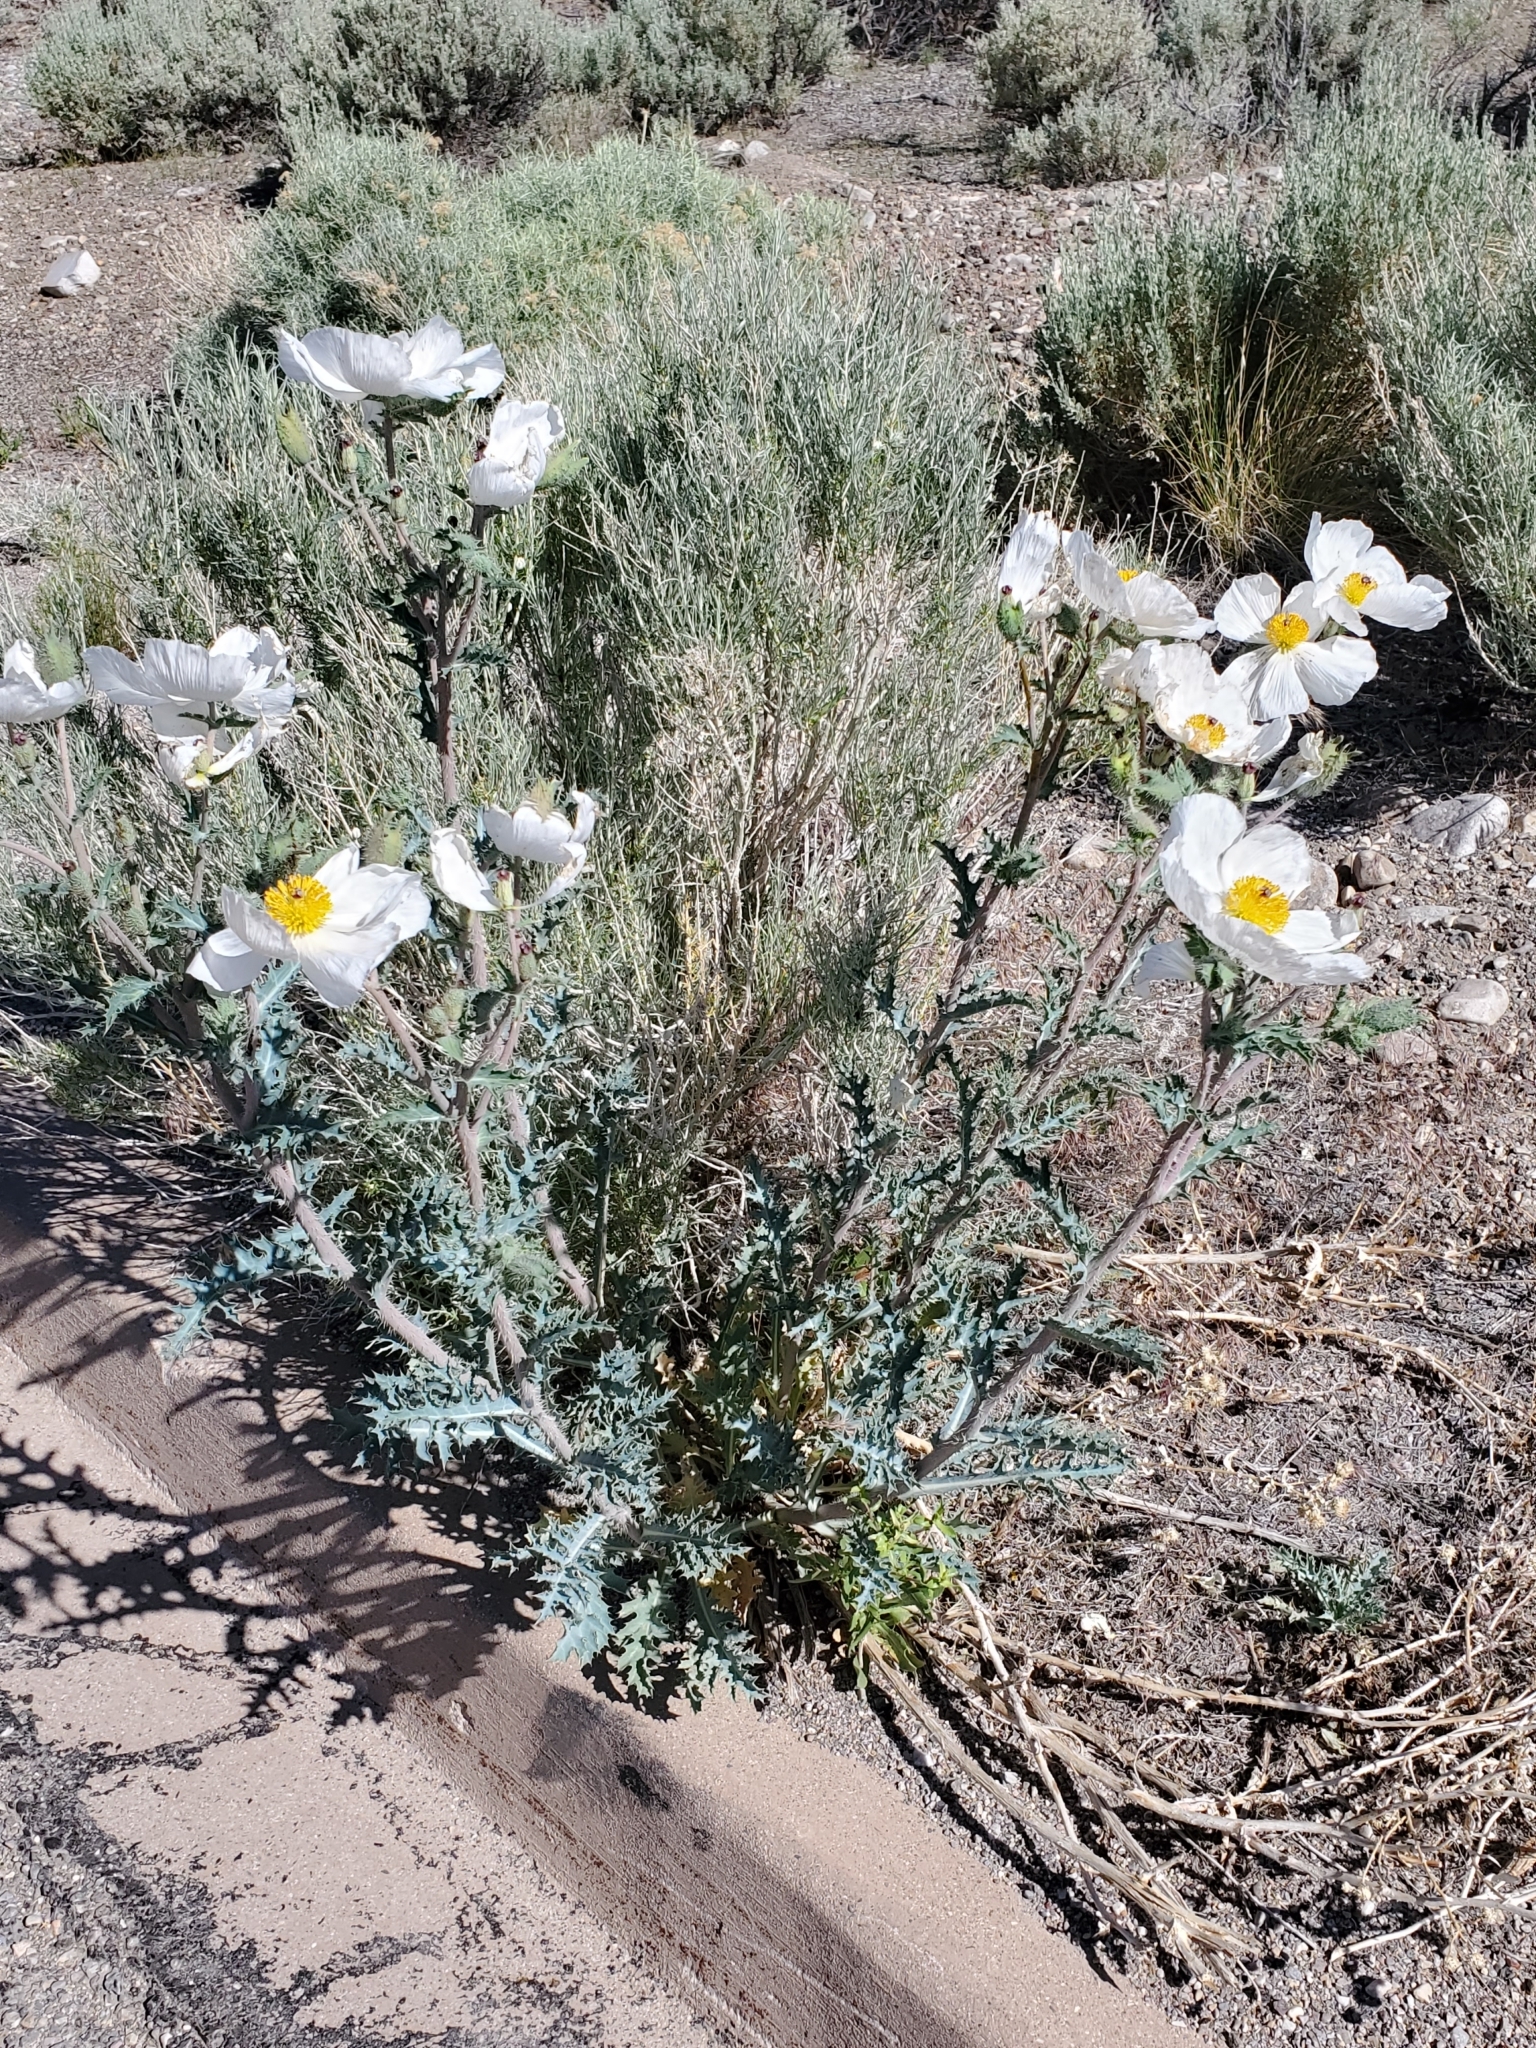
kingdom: Plantae
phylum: Tracheophyta
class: Magnoliopsida
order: Ranunculales
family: Papaveraceae
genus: Argemone
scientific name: Argemone munita
